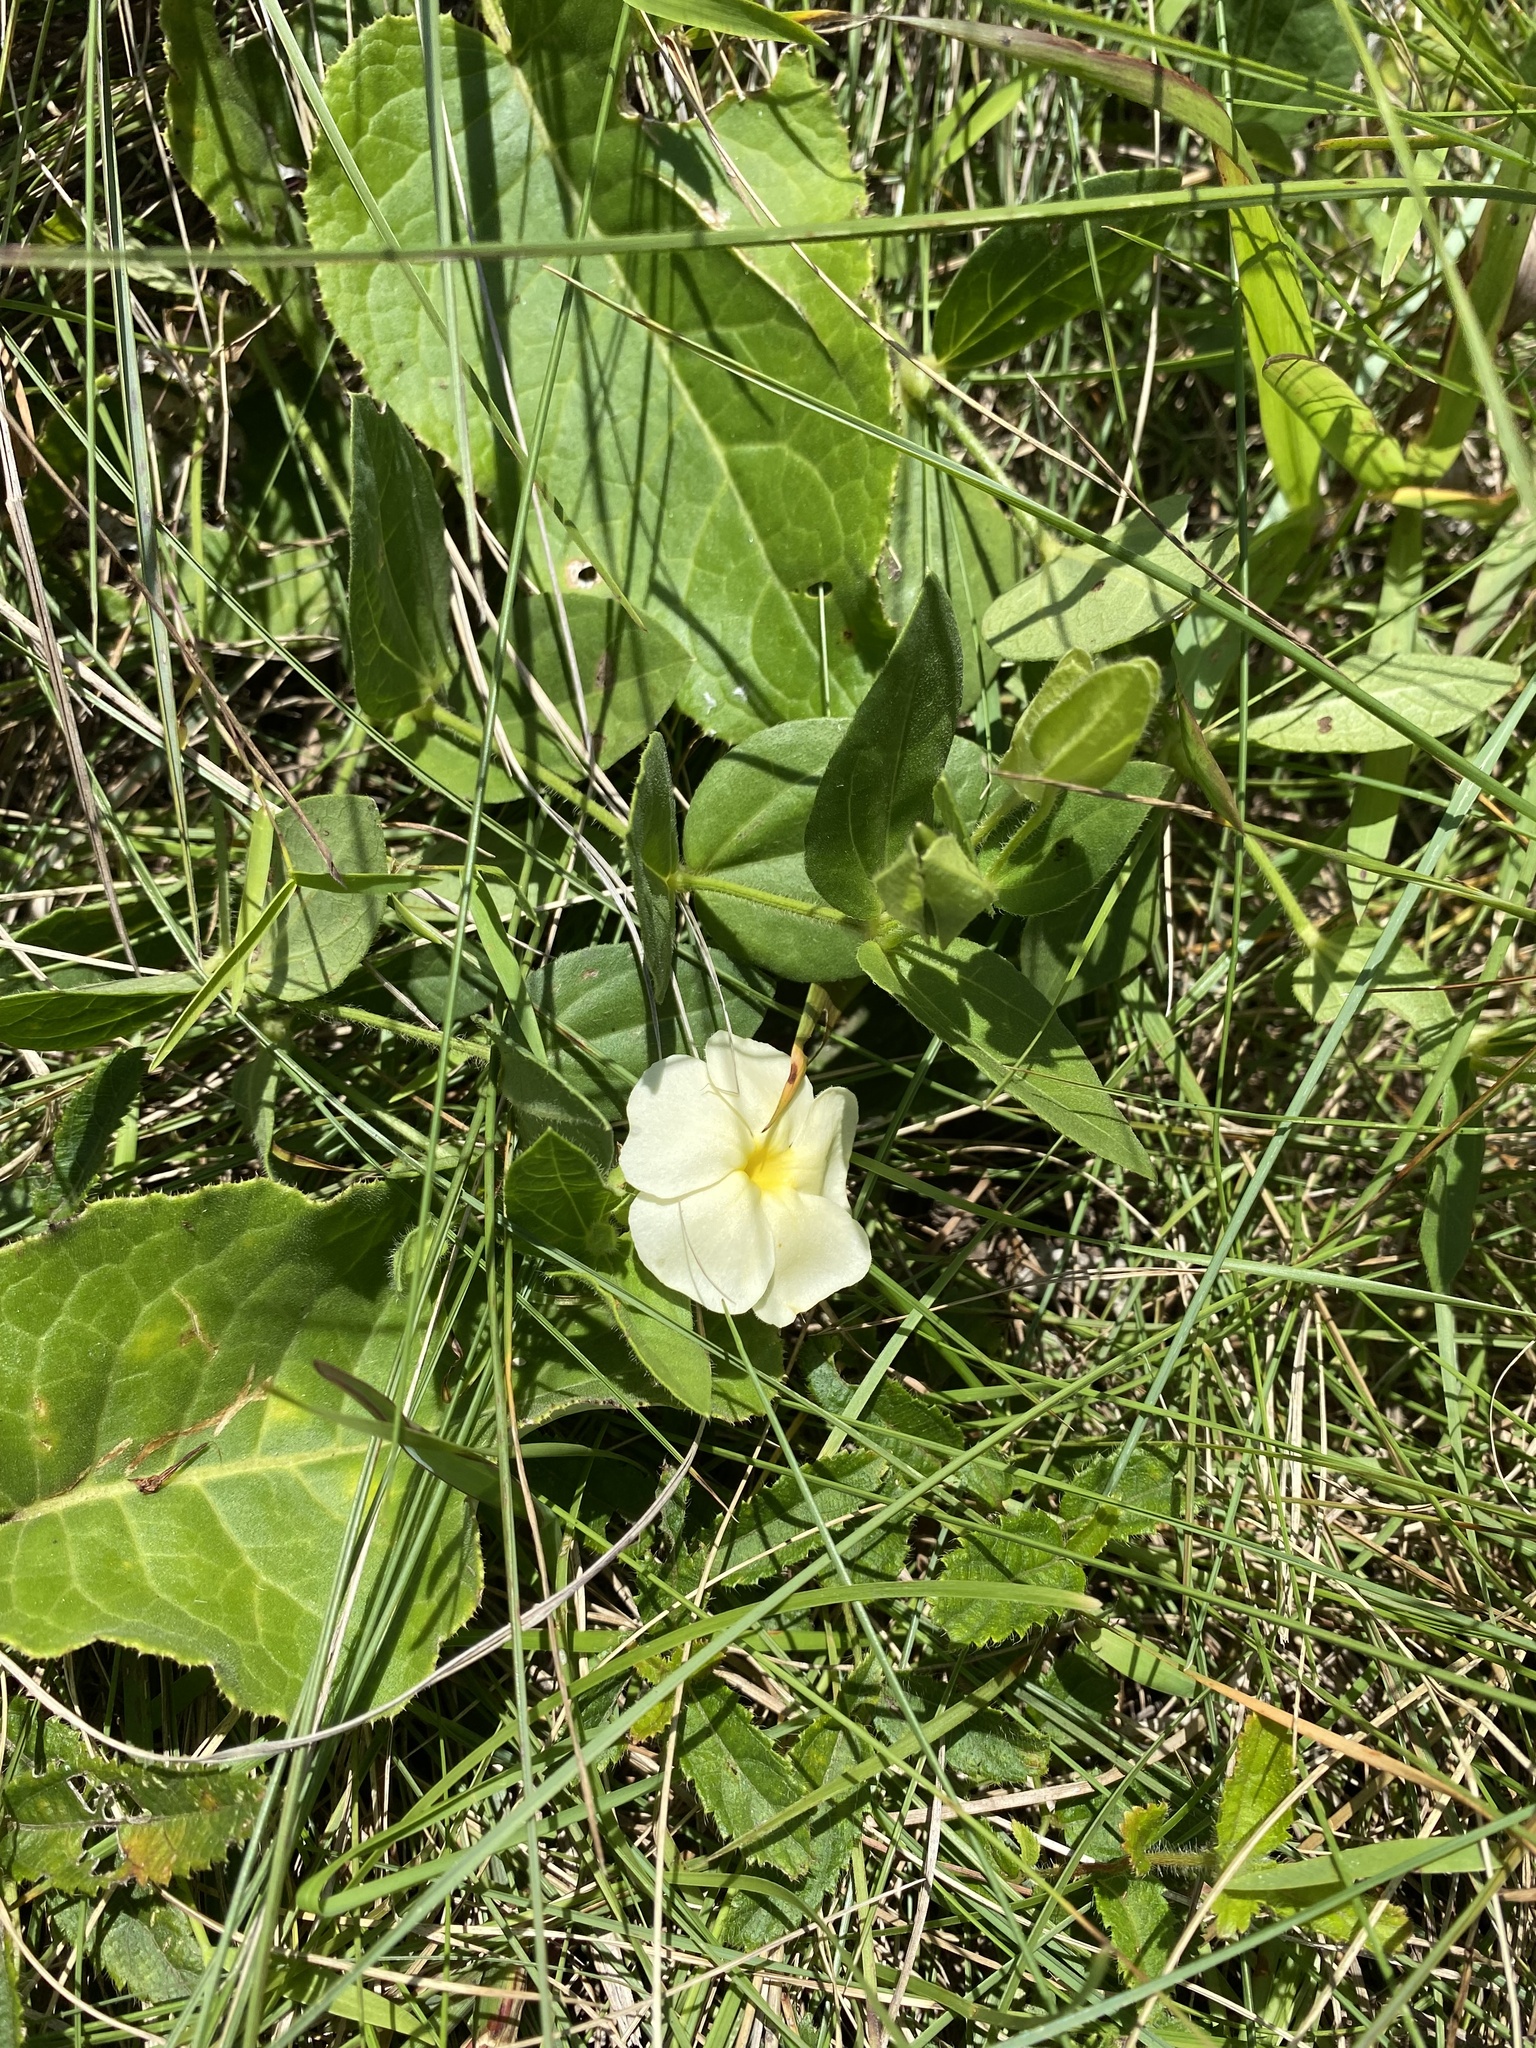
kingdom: Plantae
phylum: Tracheophyta
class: Magnoliopsida
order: Lamiales
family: Acanthaceae
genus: Thunbergia
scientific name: Thunbergia atriplicifolia
